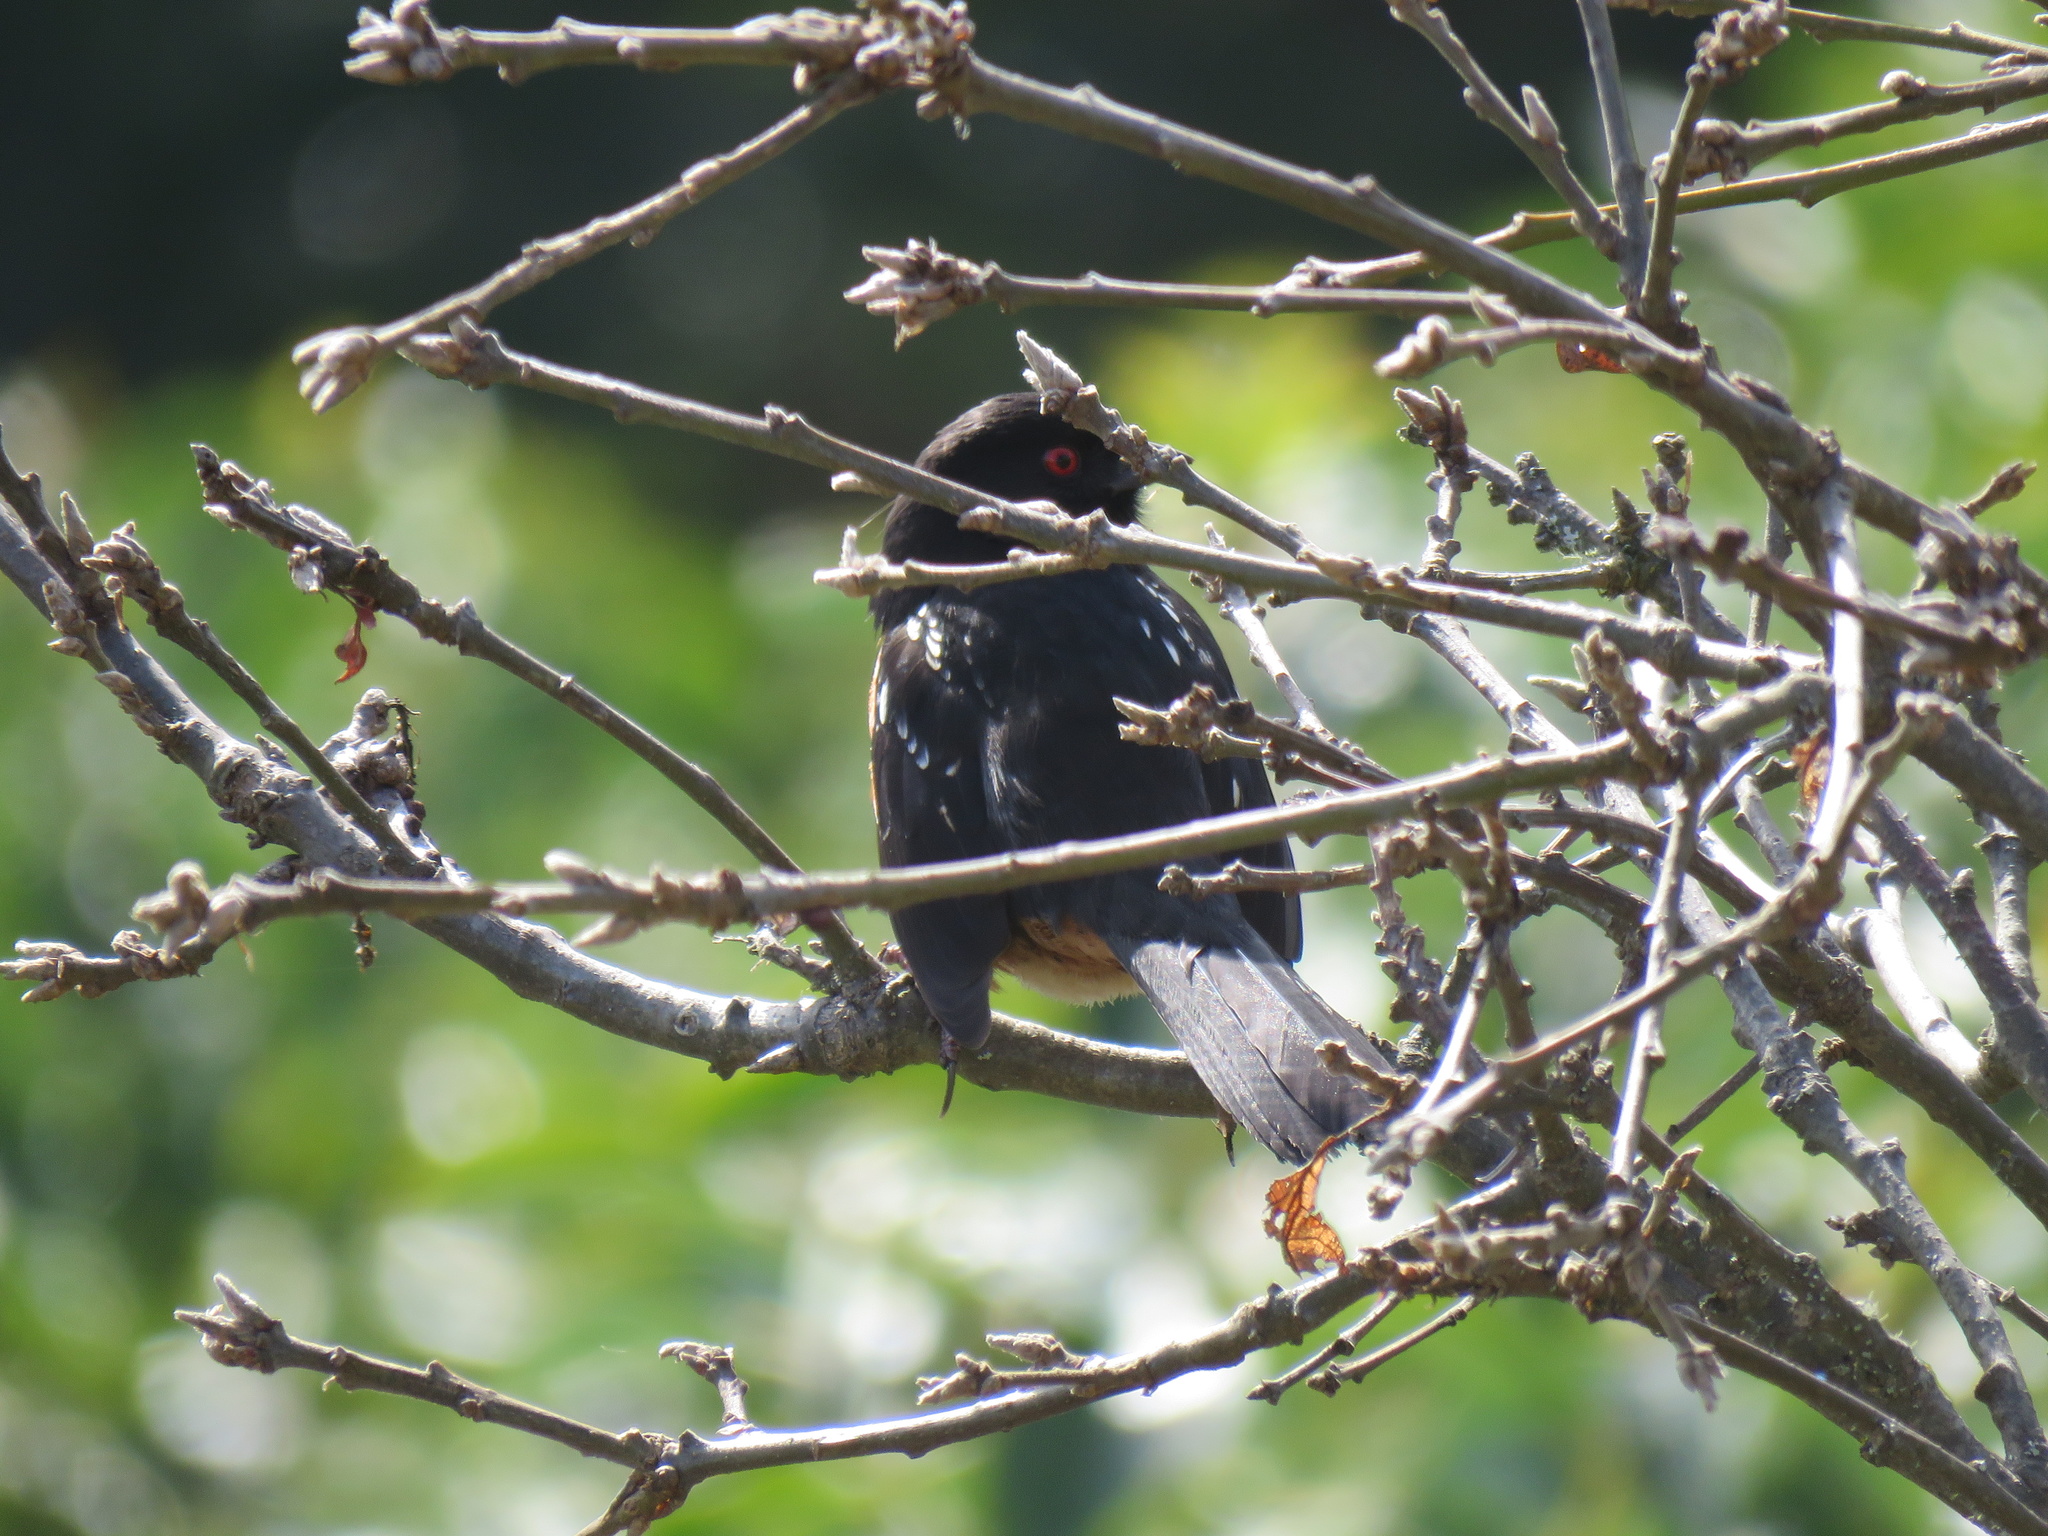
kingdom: Animalia
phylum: Chordata
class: Aves
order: Passeriformes
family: Passerellidae
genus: Pipilo
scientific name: Pipilo maculatus
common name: Spotted towhee
